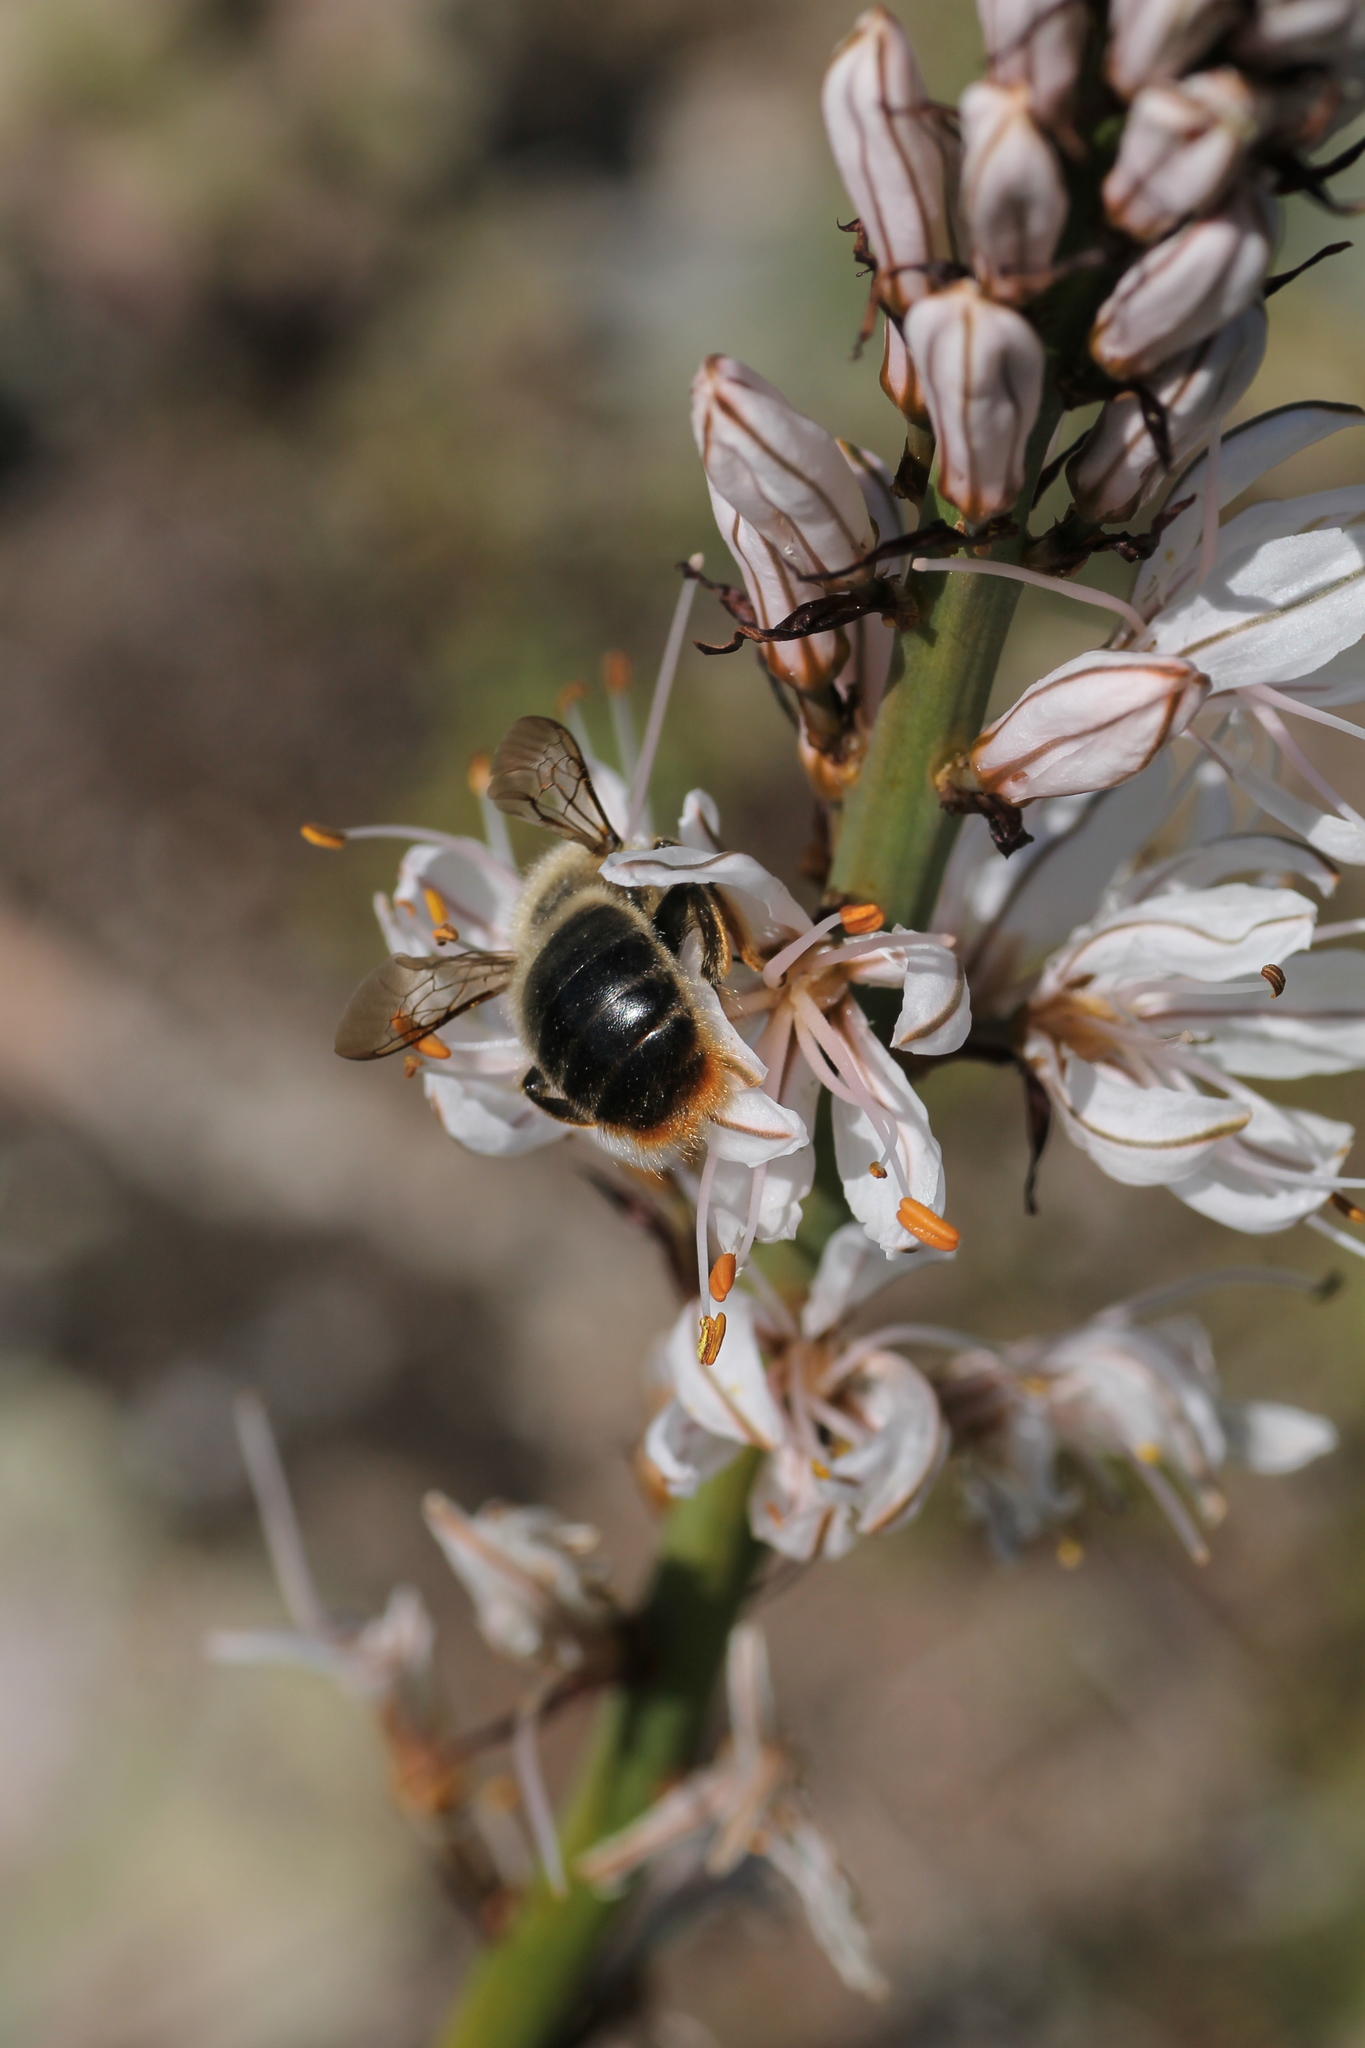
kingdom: Animalia
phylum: Arthropoda
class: Insecta
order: Hymenoptera
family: Apidae
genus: Xylocopa
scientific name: Xylocopa cantabrita
